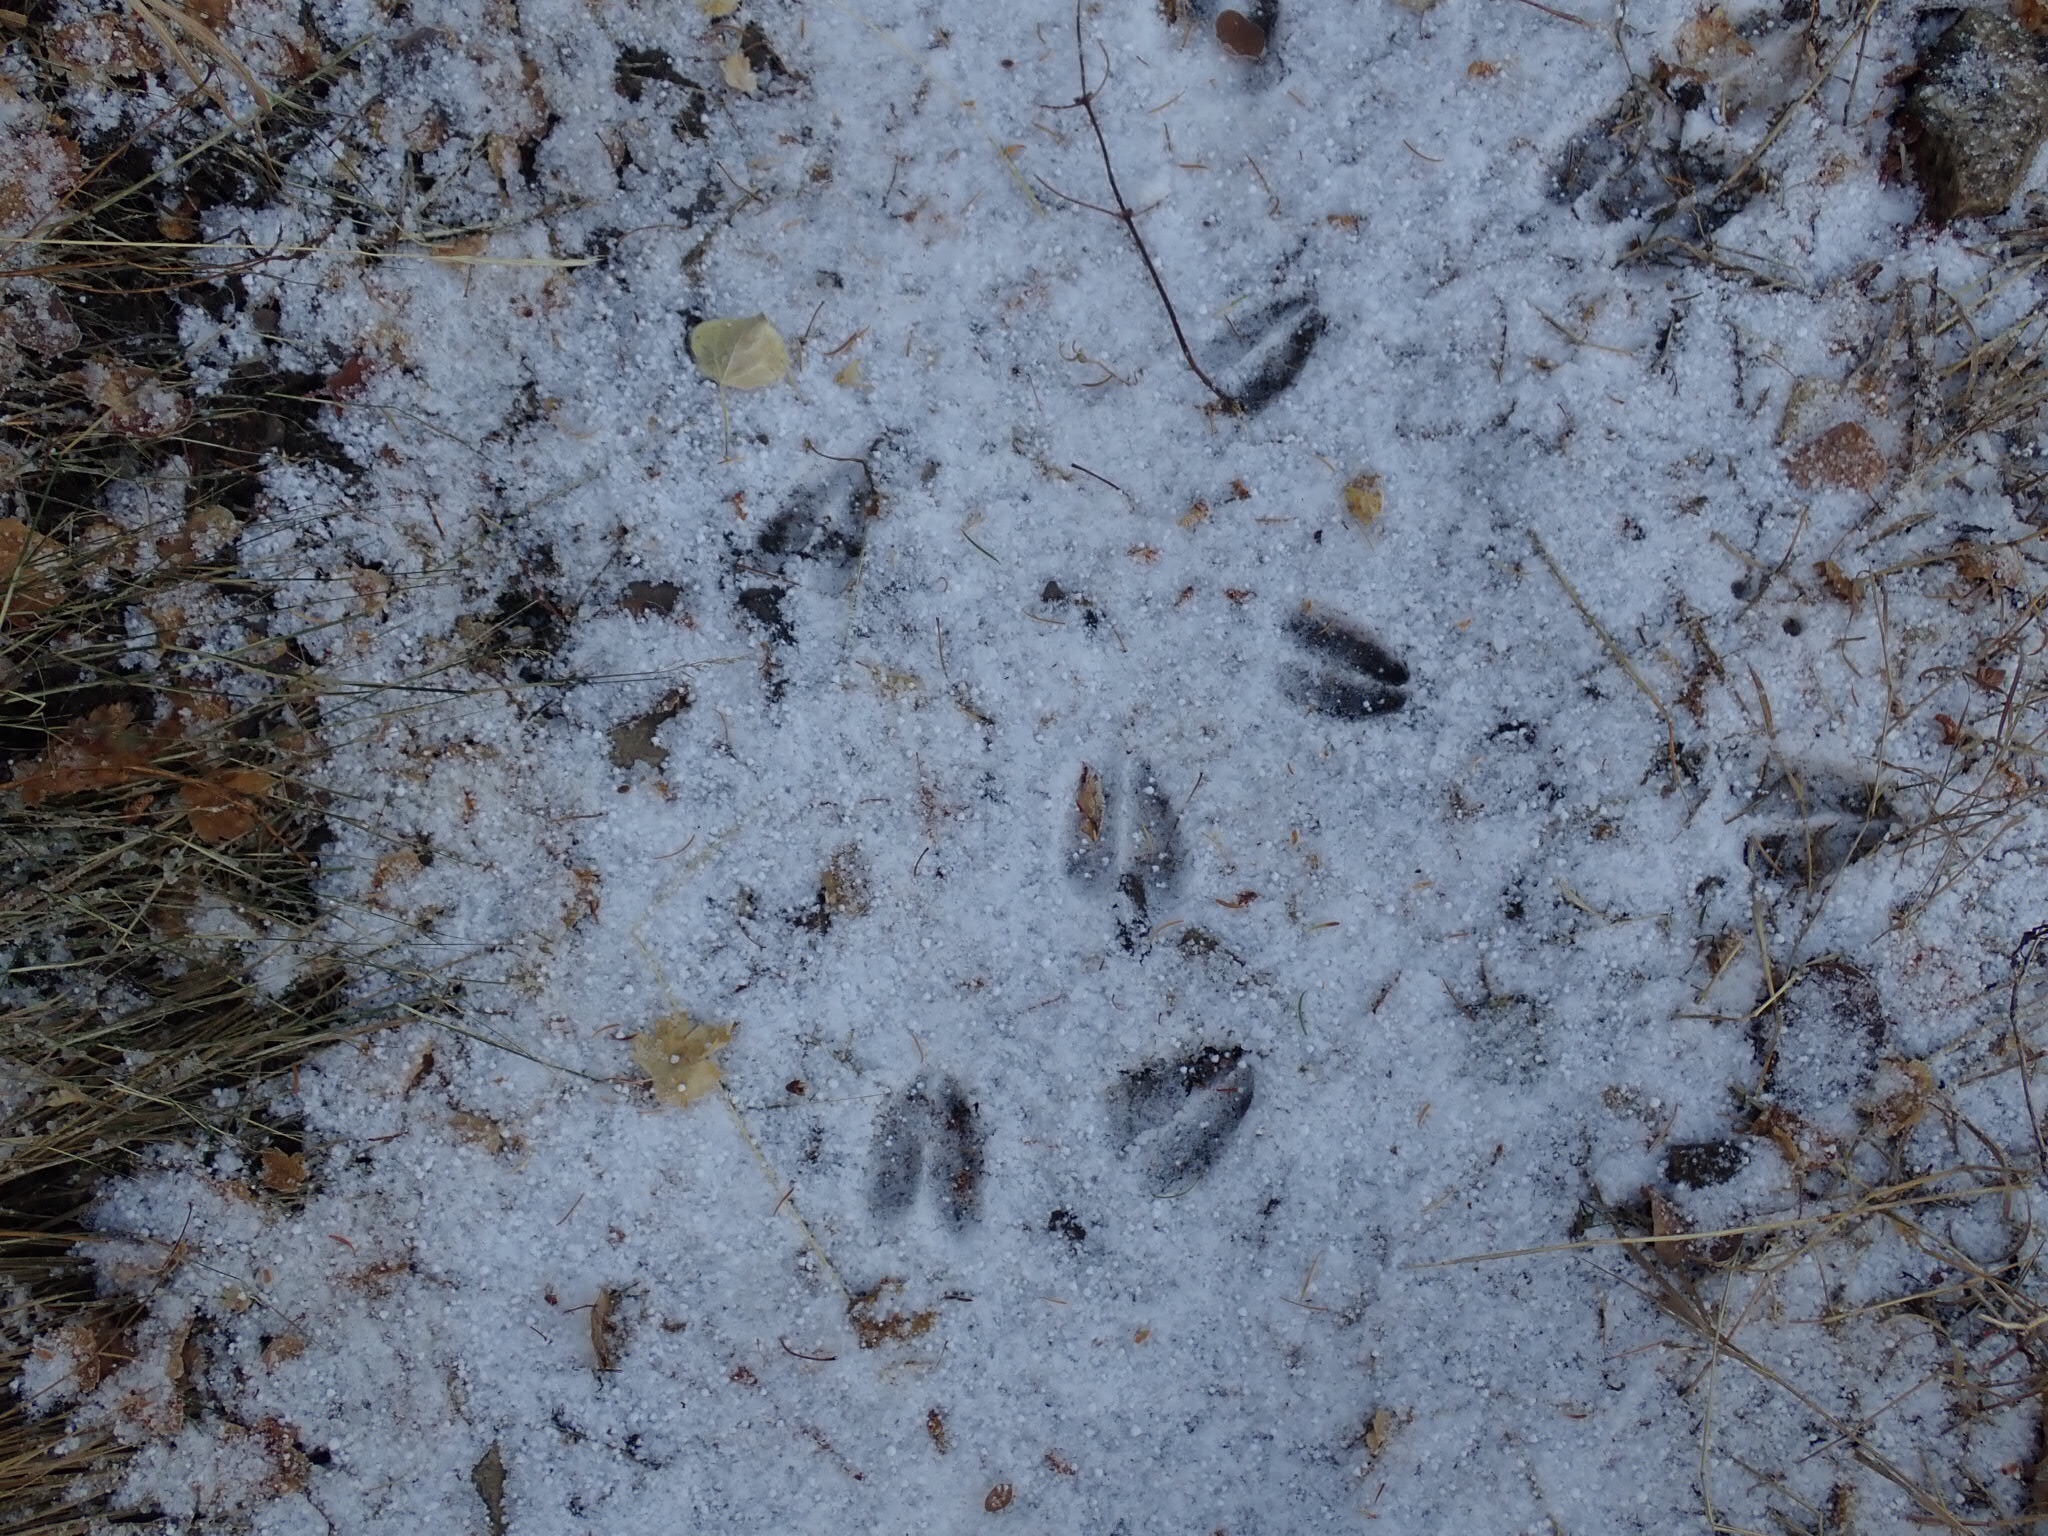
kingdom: Animalia
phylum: Chordata
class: Mammalia
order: Artiodactyla
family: Cervidae
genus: Odocoileus
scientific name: Odocoileus hemionus
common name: Mule deer
